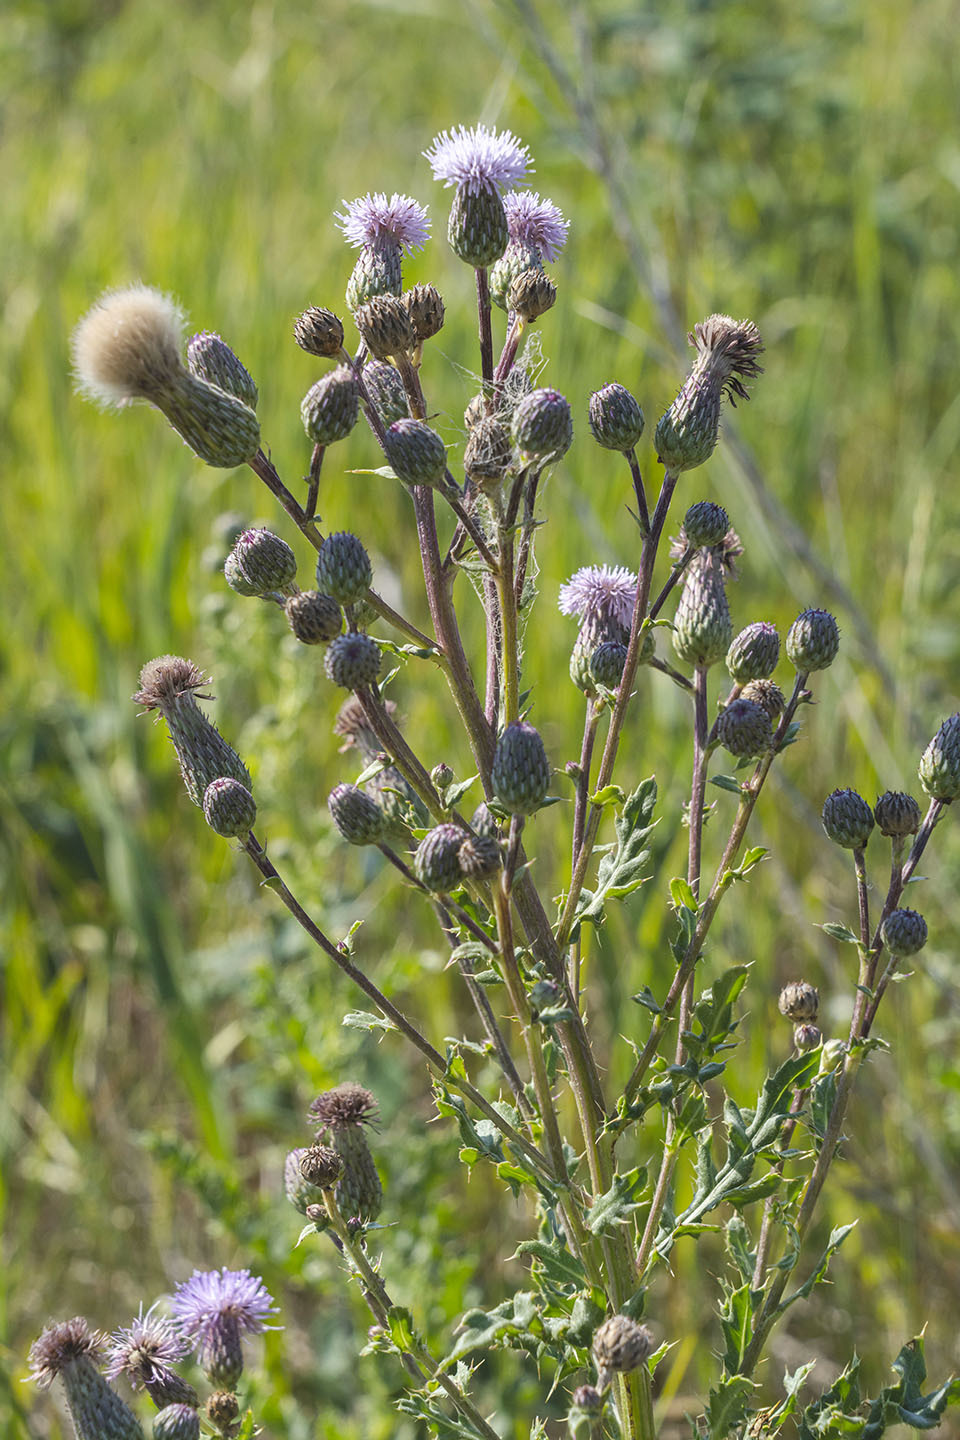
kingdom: Plantae
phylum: Tracheophyta
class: Magnoliopsida
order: Asterales
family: Asteraceae
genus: Cirsium
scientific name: Cirsium arvense
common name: Creeping thistle
